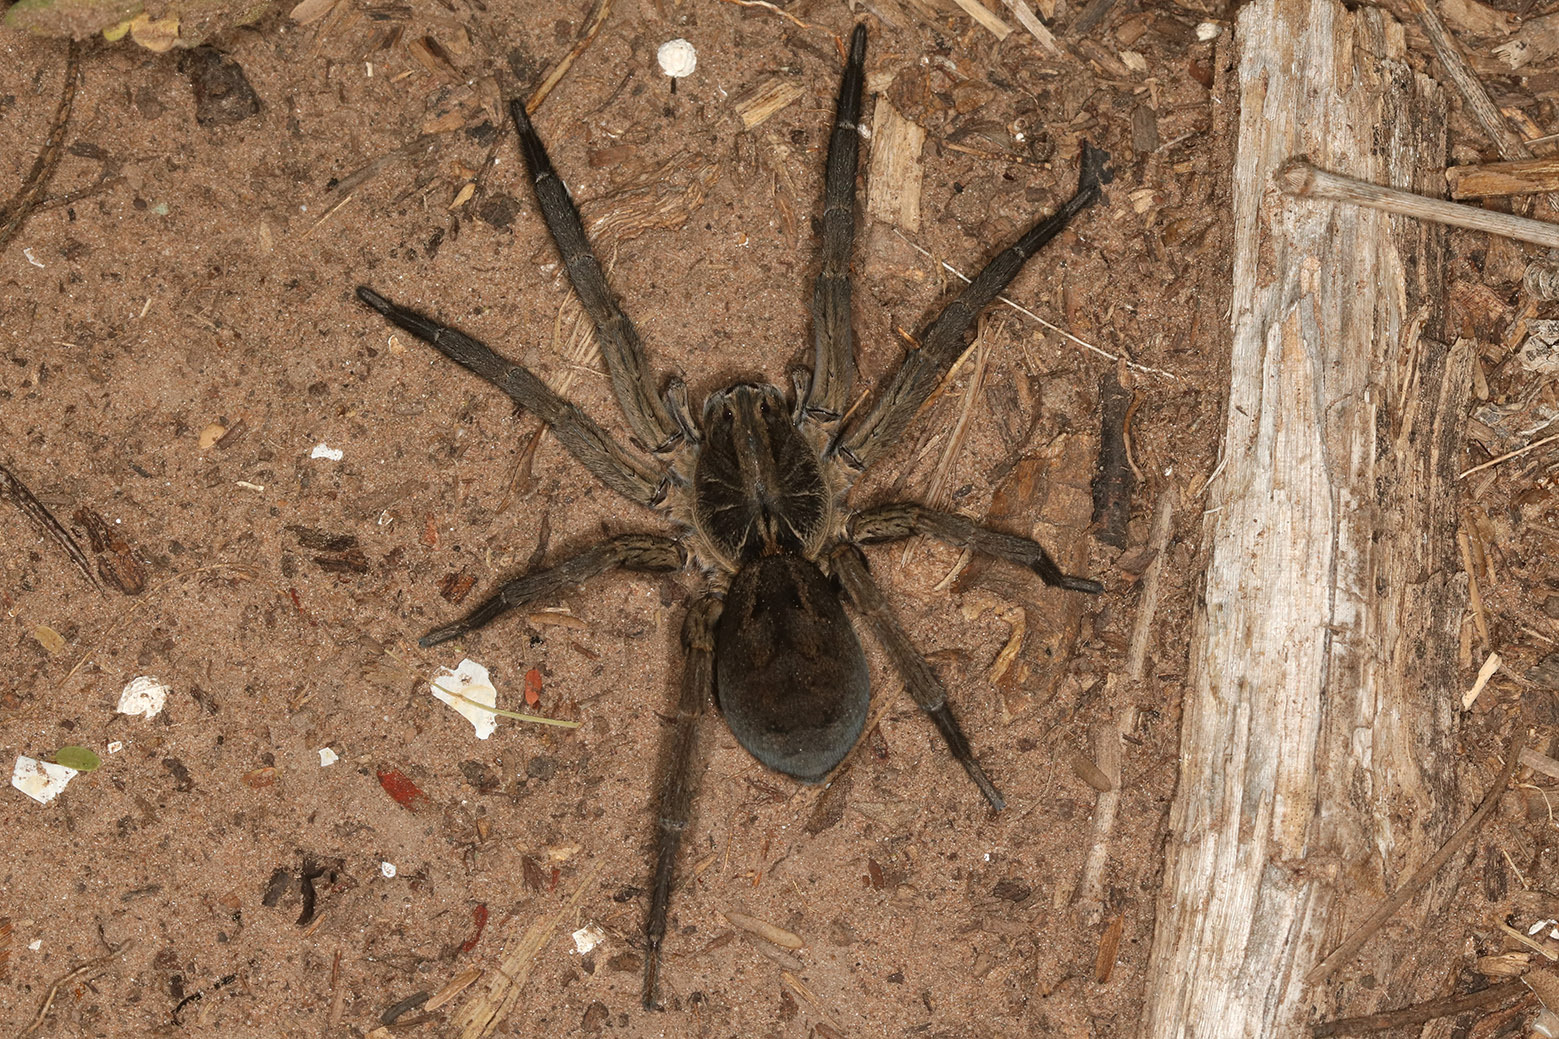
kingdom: Animalia
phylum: Arthropoda
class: Arachnida
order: Araneae
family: Lycosidae
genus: Lycosa
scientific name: Lycosa erythrognatha
